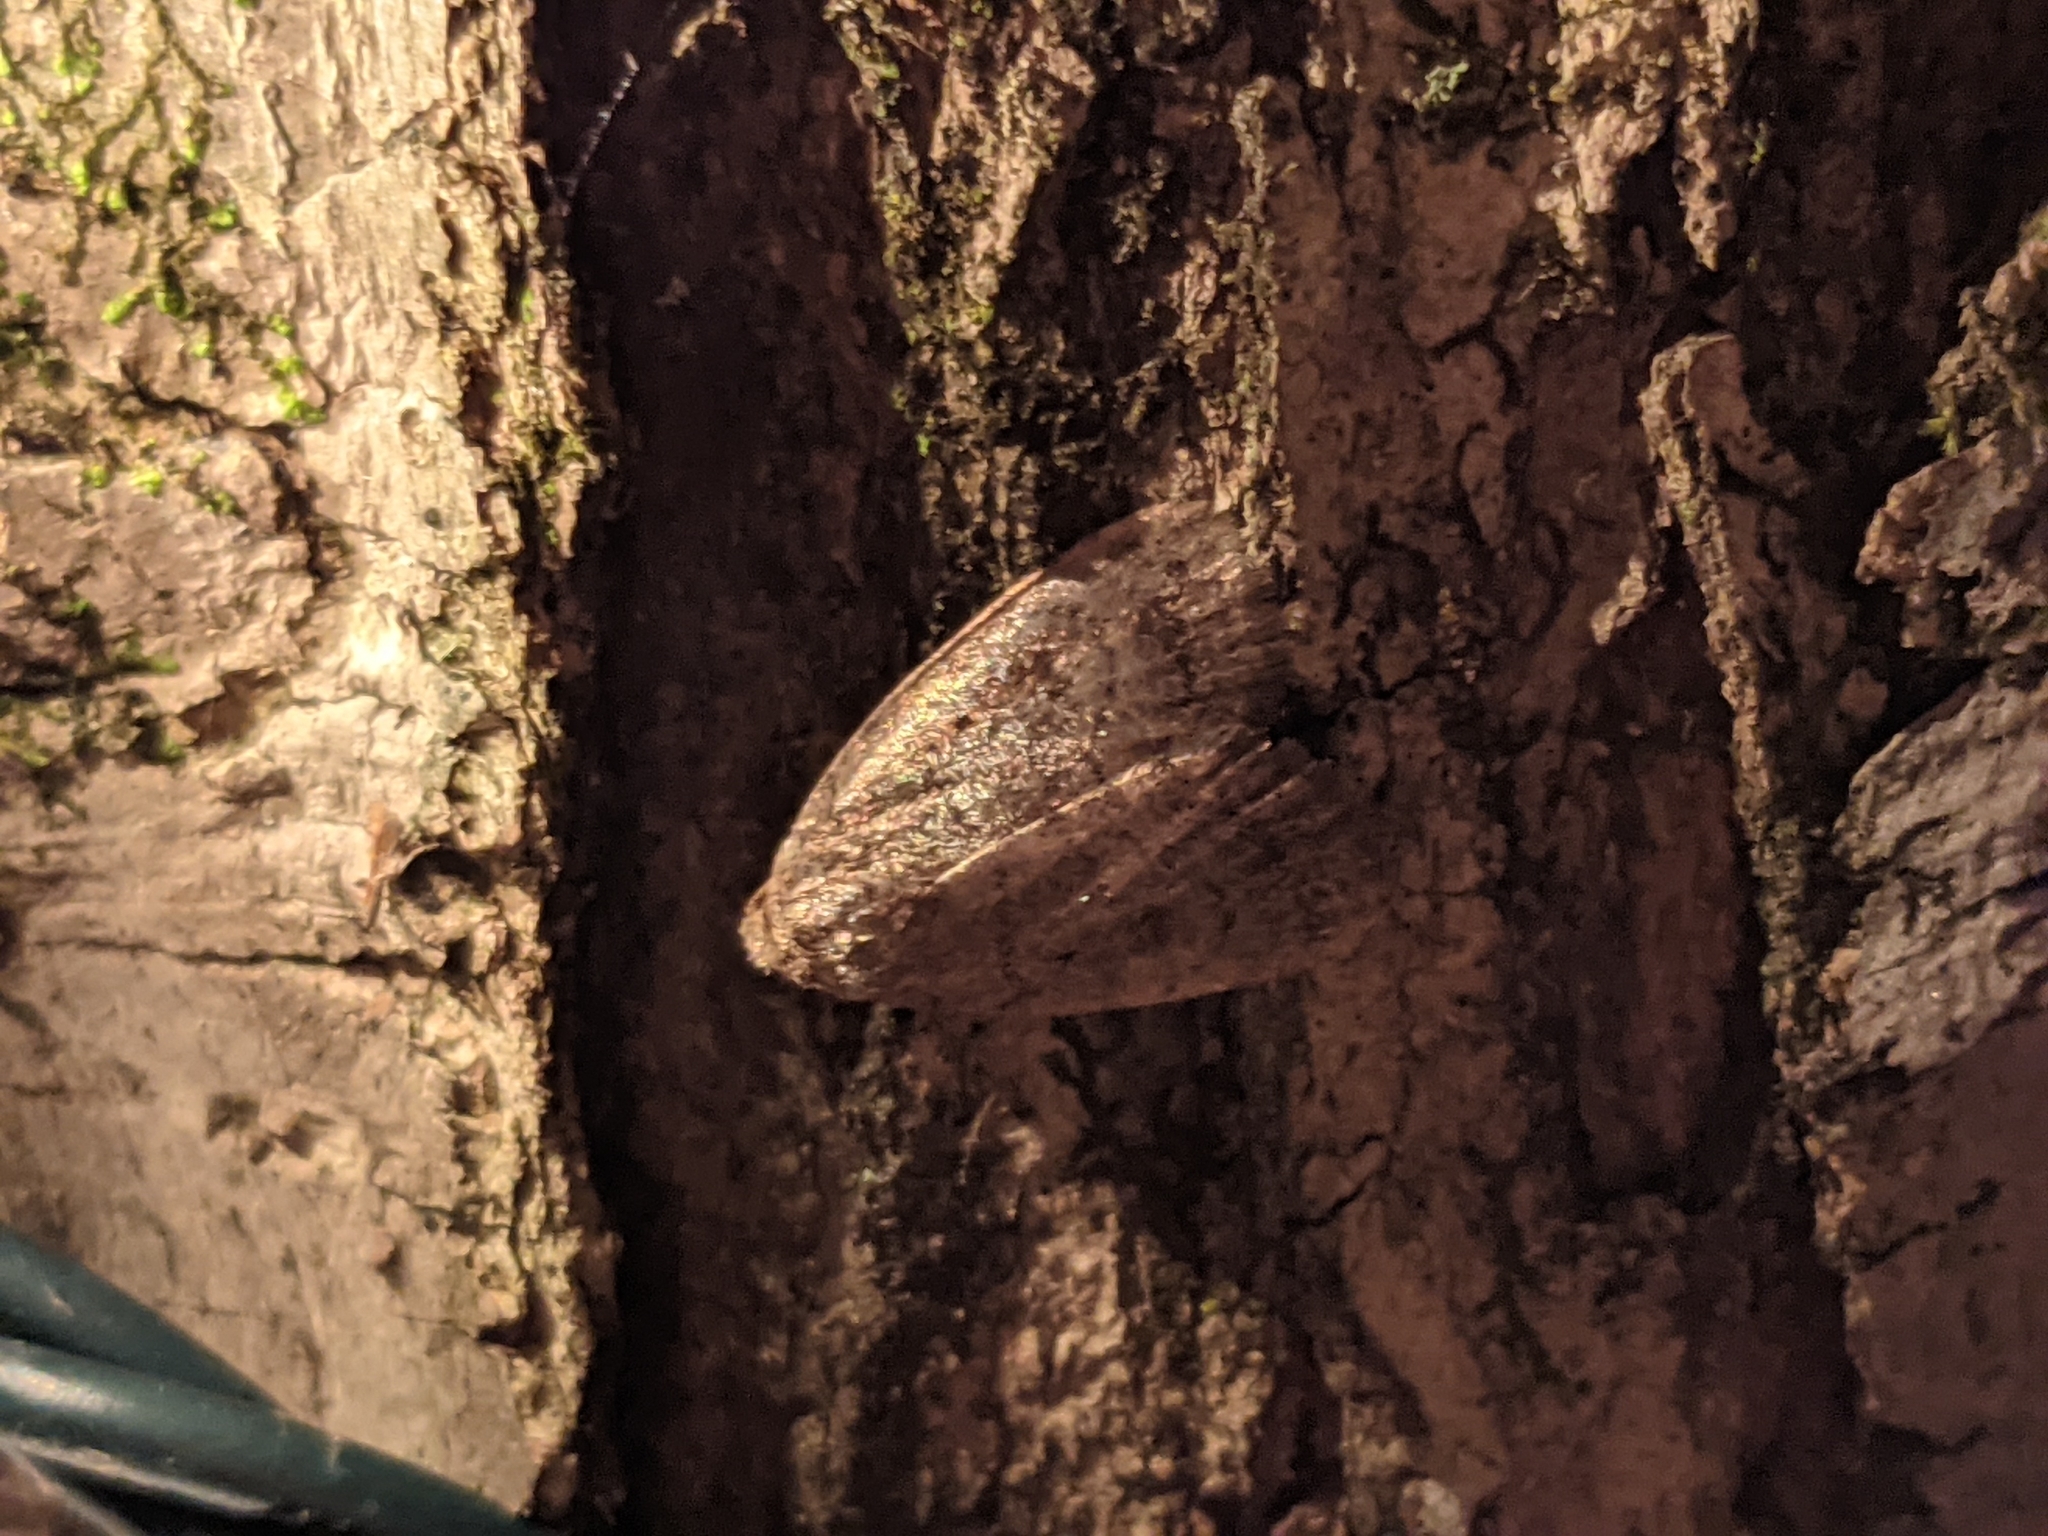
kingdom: Animalia
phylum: Arthropoda
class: Insecta
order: Lepidoptera
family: Noctuidae
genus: Athetis
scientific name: Athetis tarda
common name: Slowpoke moth
